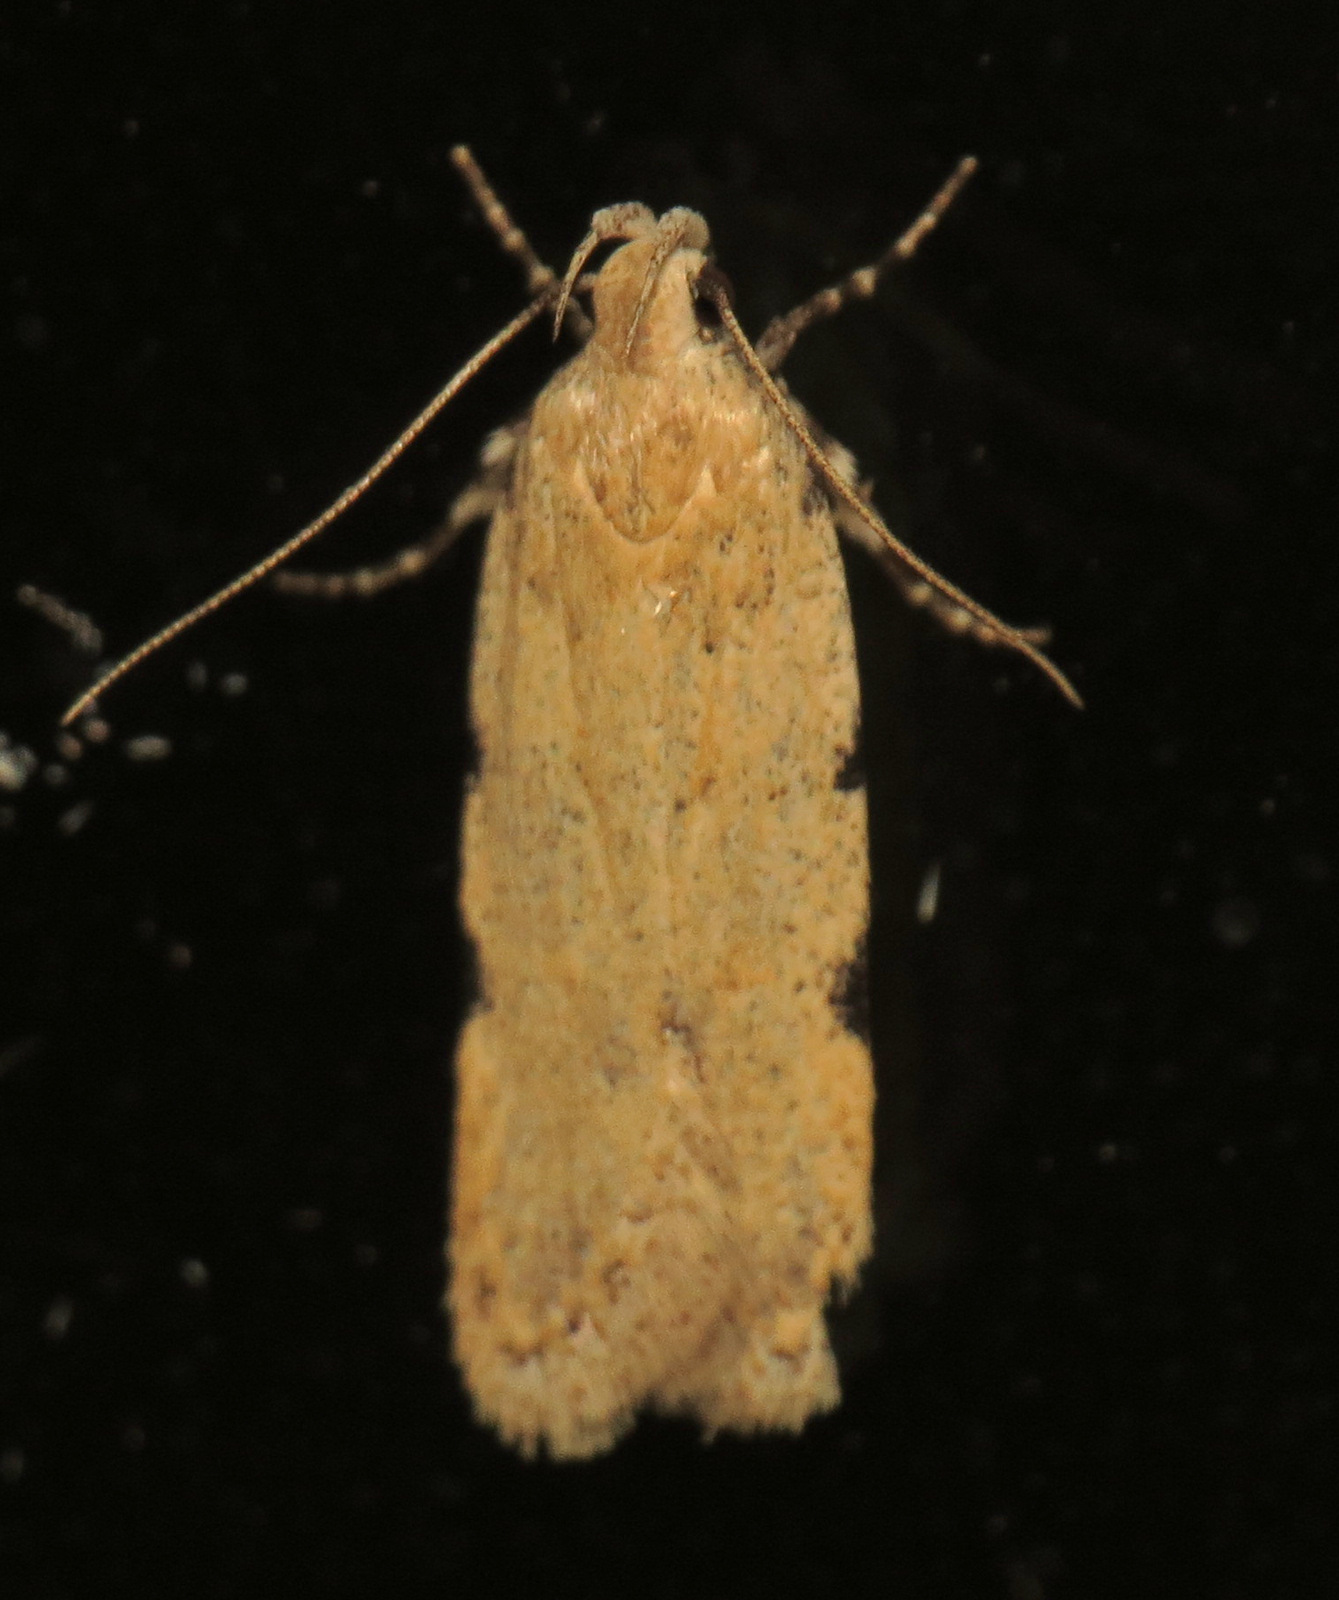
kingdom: Animalia
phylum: Arthropoda
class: Insecta
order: Lepidoptera
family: Gelechiidae
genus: Friseria
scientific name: Friseria cockerelli
